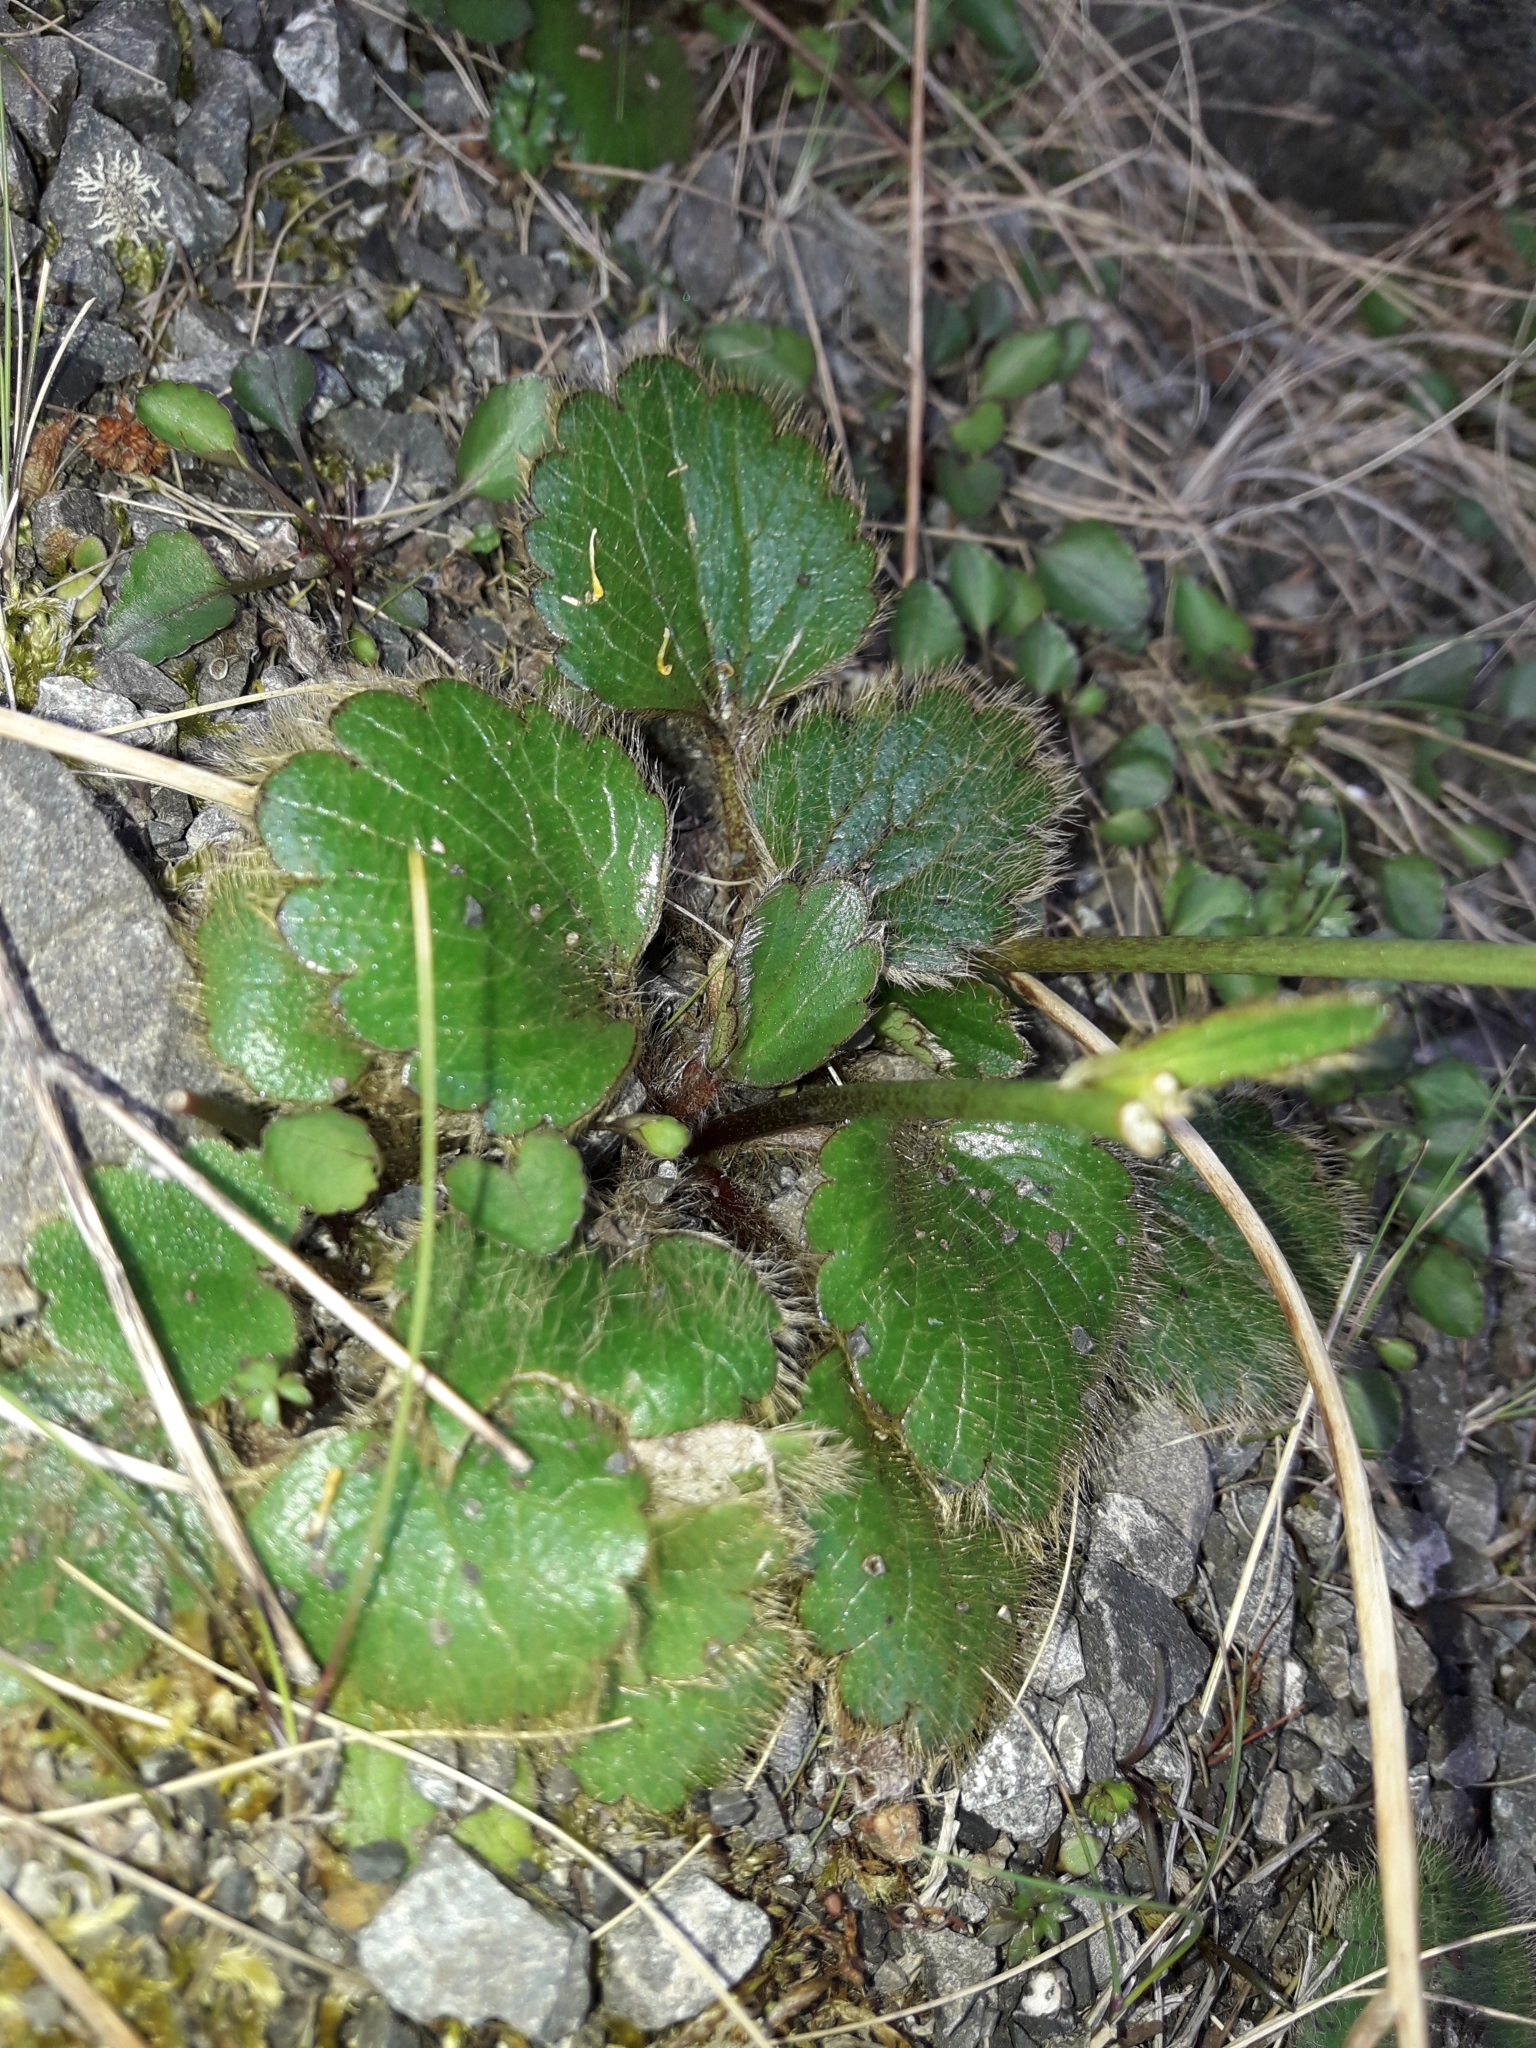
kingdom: Plantae
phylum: Tracheophyta
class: Magnoliopsida
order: Ranunculales
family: Ranunculaceae
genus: Ranunculus
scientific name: Ranunculus insignis
